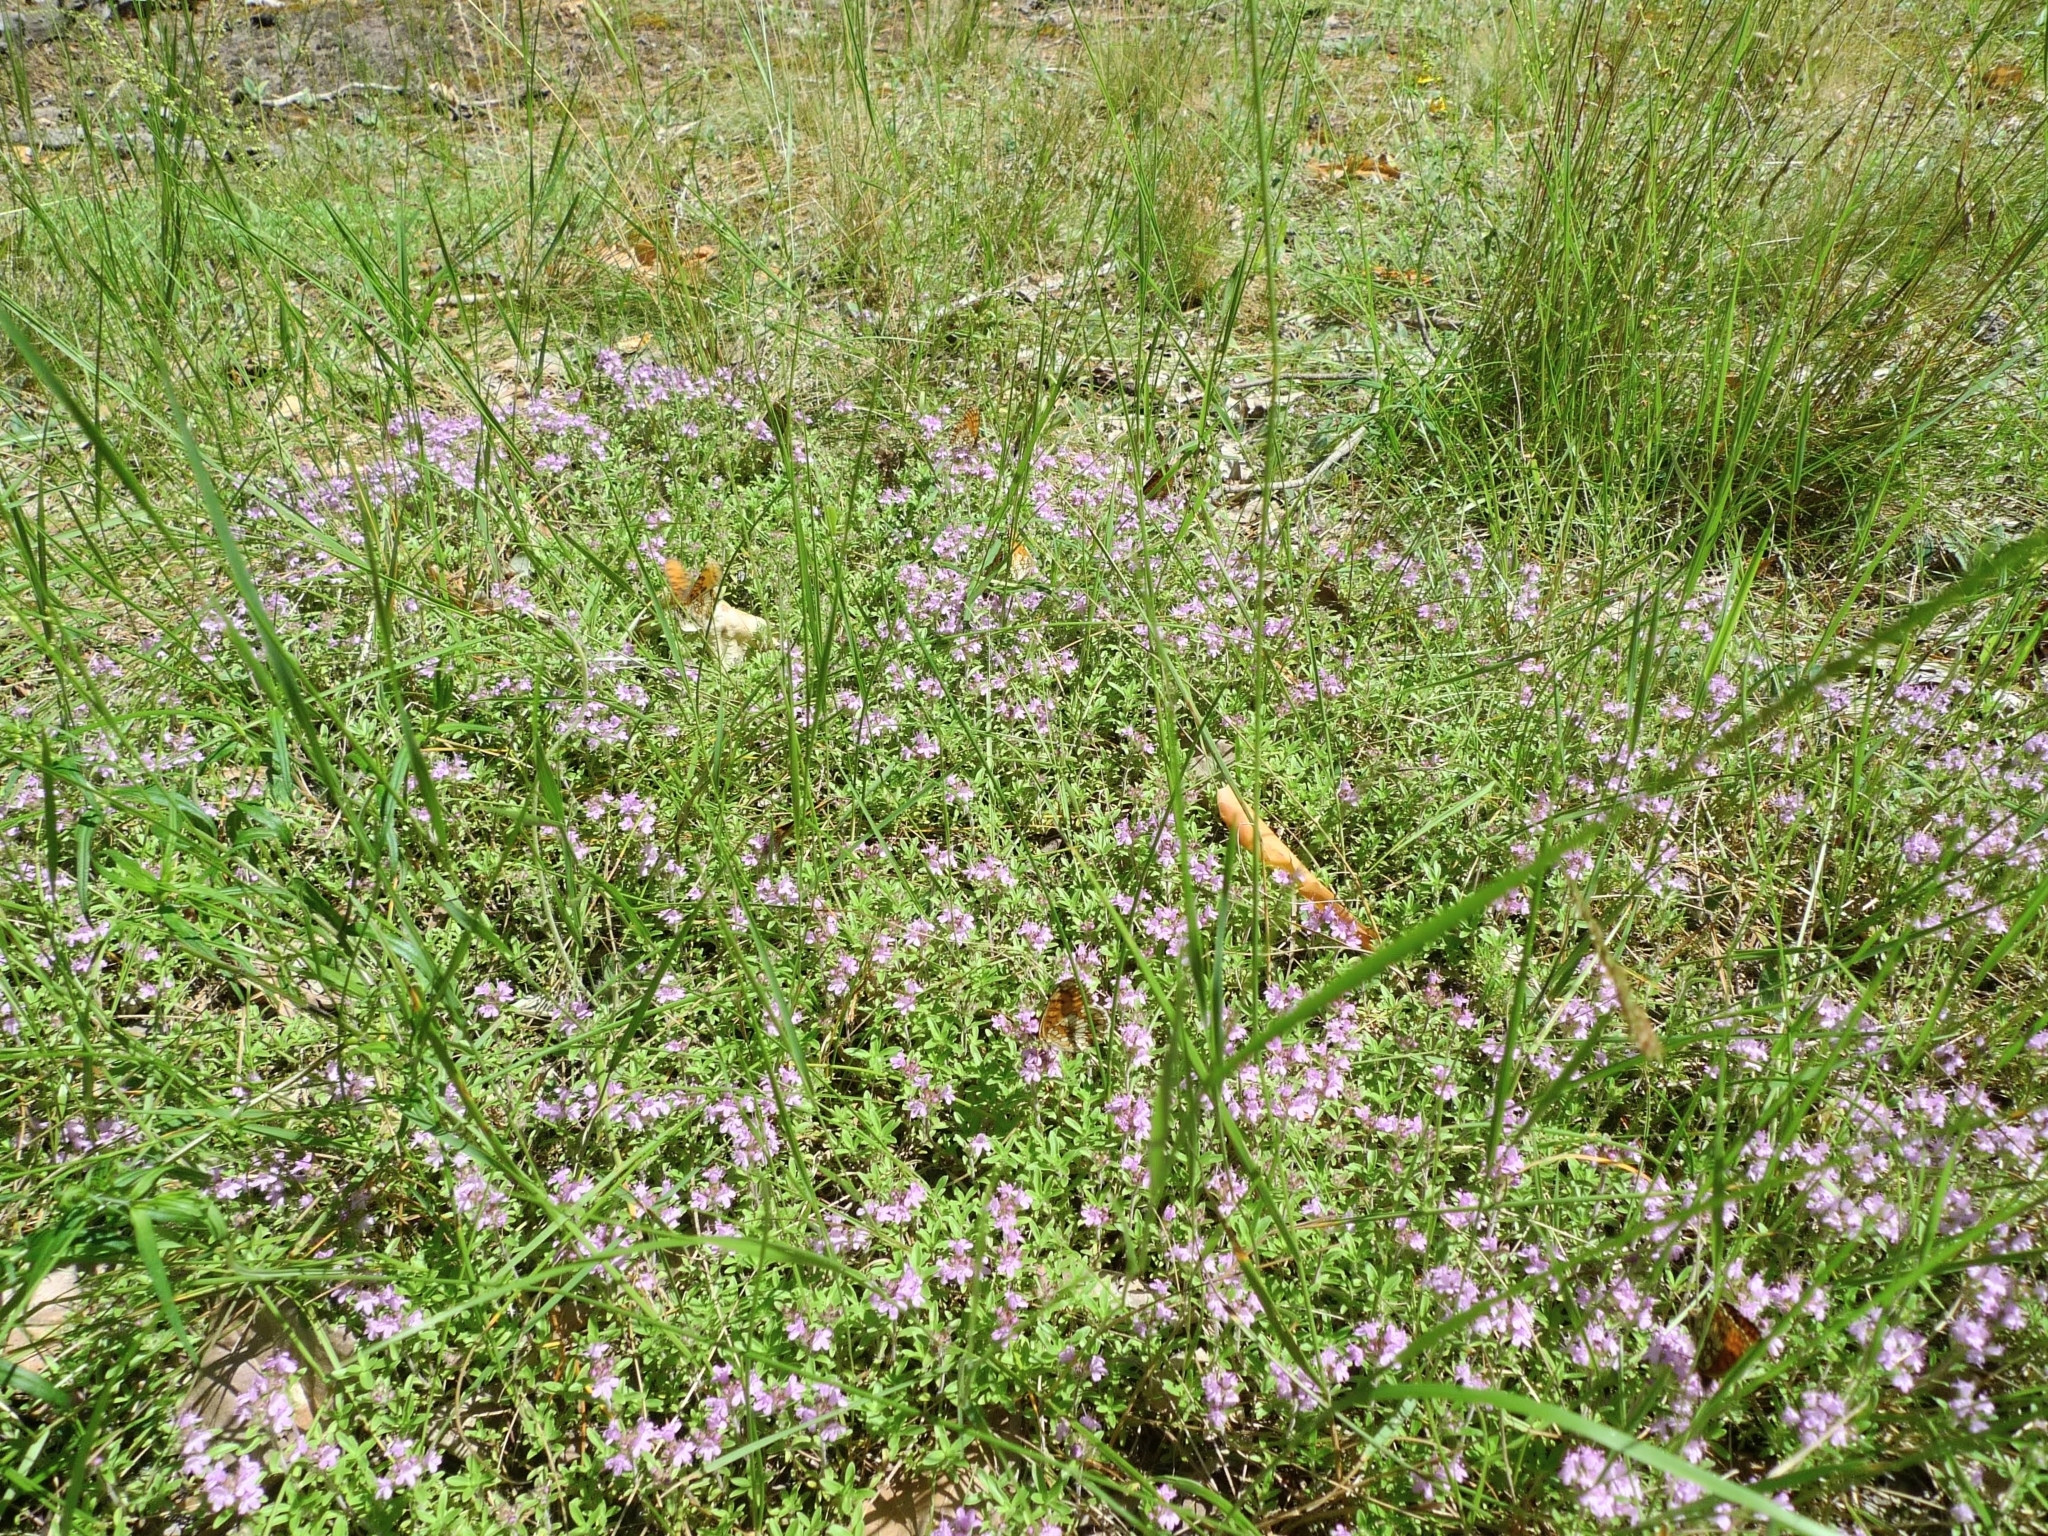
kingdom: Plantae
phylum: Tracheophyta
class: Magnoliopsida
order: Lamiales
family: Lamiaceae
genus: Thymus
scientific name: Thymus serpyllum
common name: Breckland thyme
